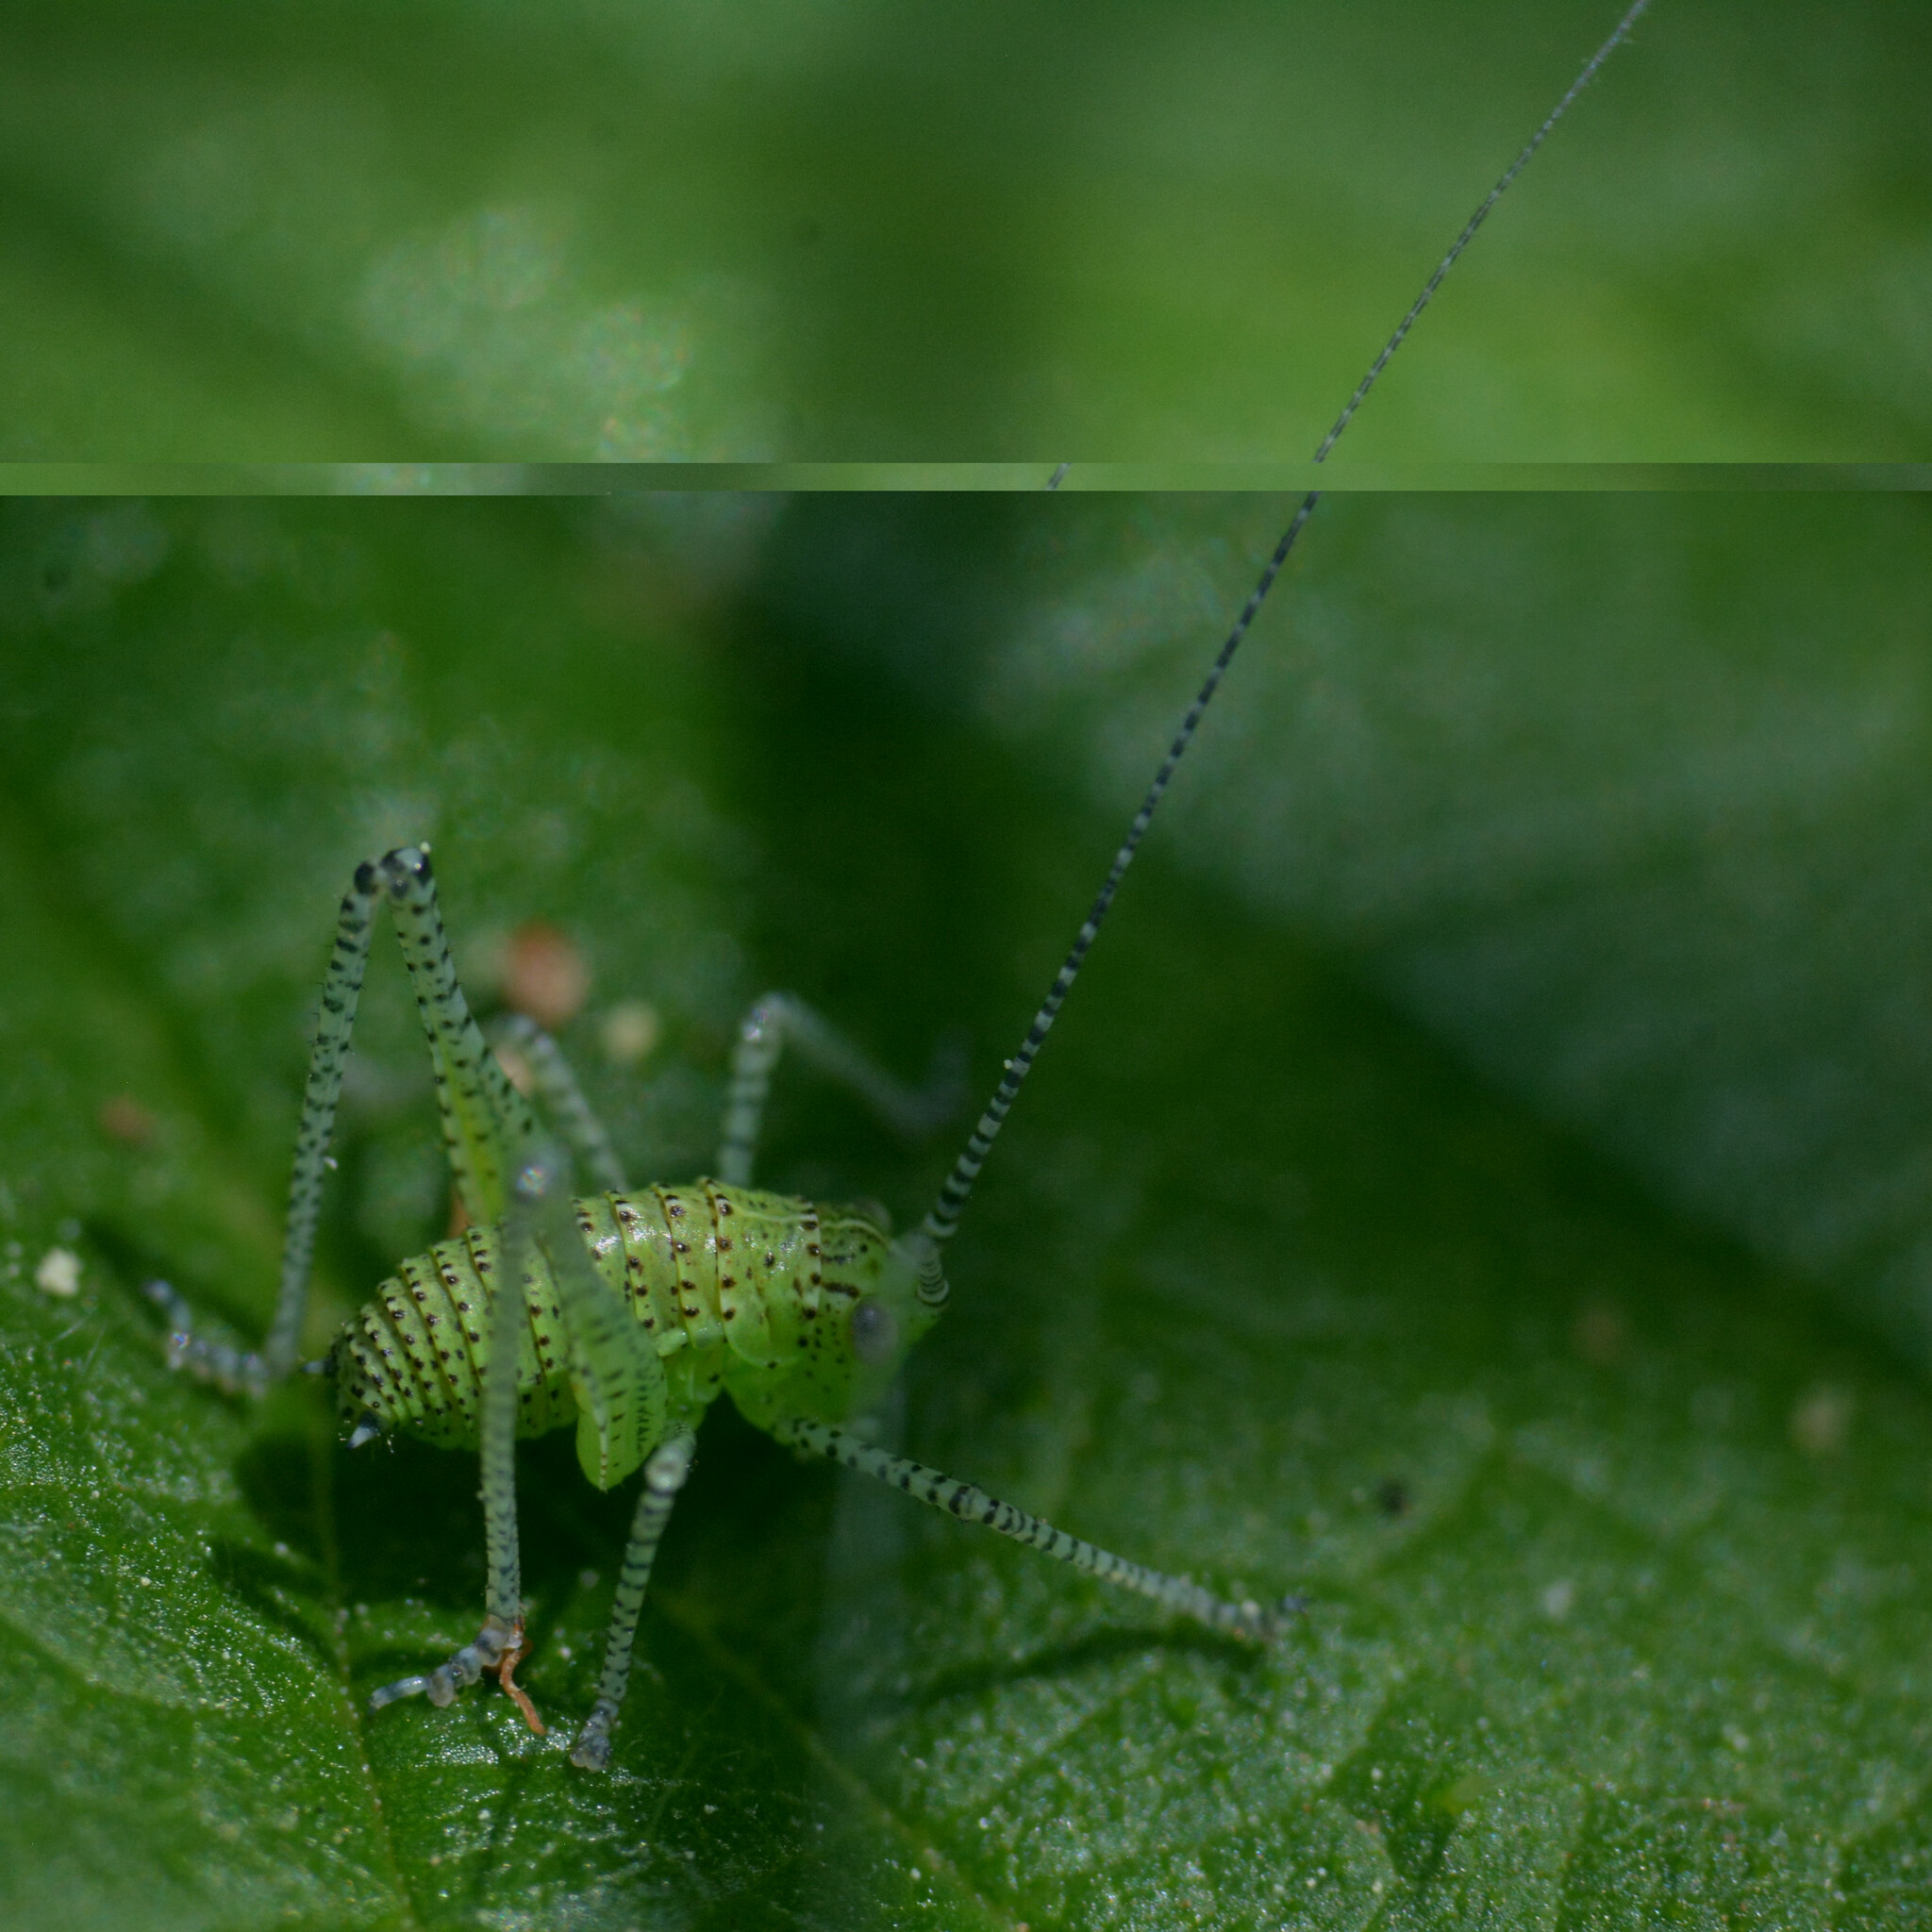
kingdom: Animalia
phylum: Arthropoda
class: Insecta
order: Orthoptera
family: Tettigoniidae
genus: Leptophyes
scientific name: Leptophyes punctatissima
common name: Speckled bush-cricket
